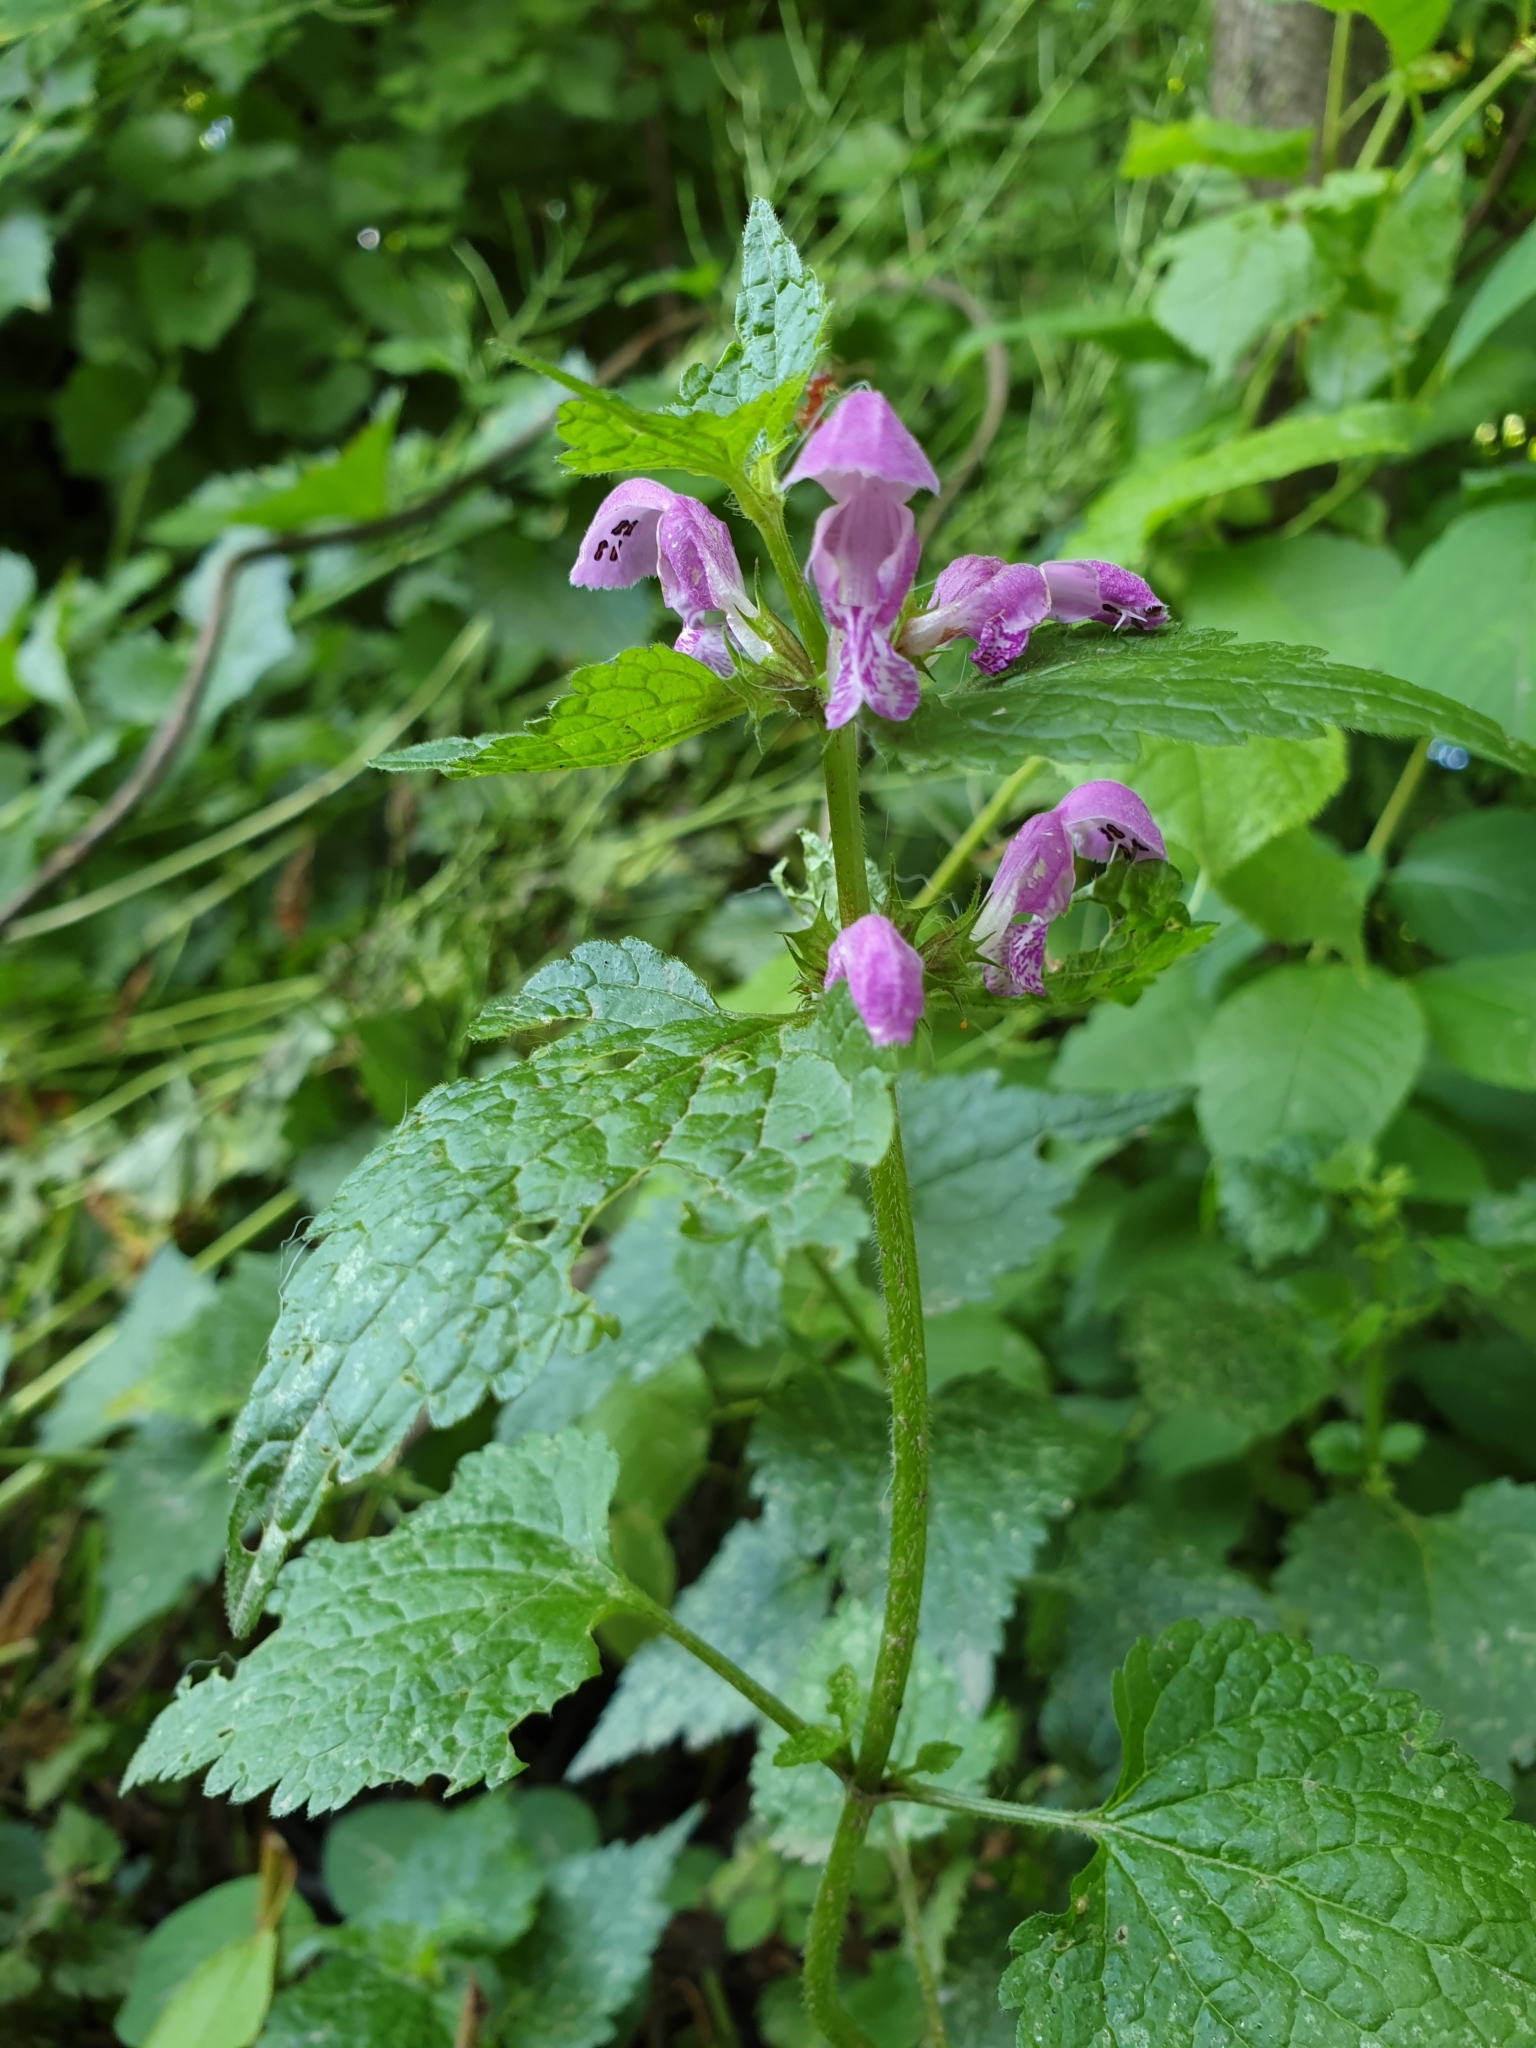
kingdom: Plantae
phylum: Tracheophyta
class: Magnoliopsida
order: Lamiales
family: Lamiaceae
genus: Lamium
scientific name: Lamium maculatum
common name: Spotted dead-nettle
